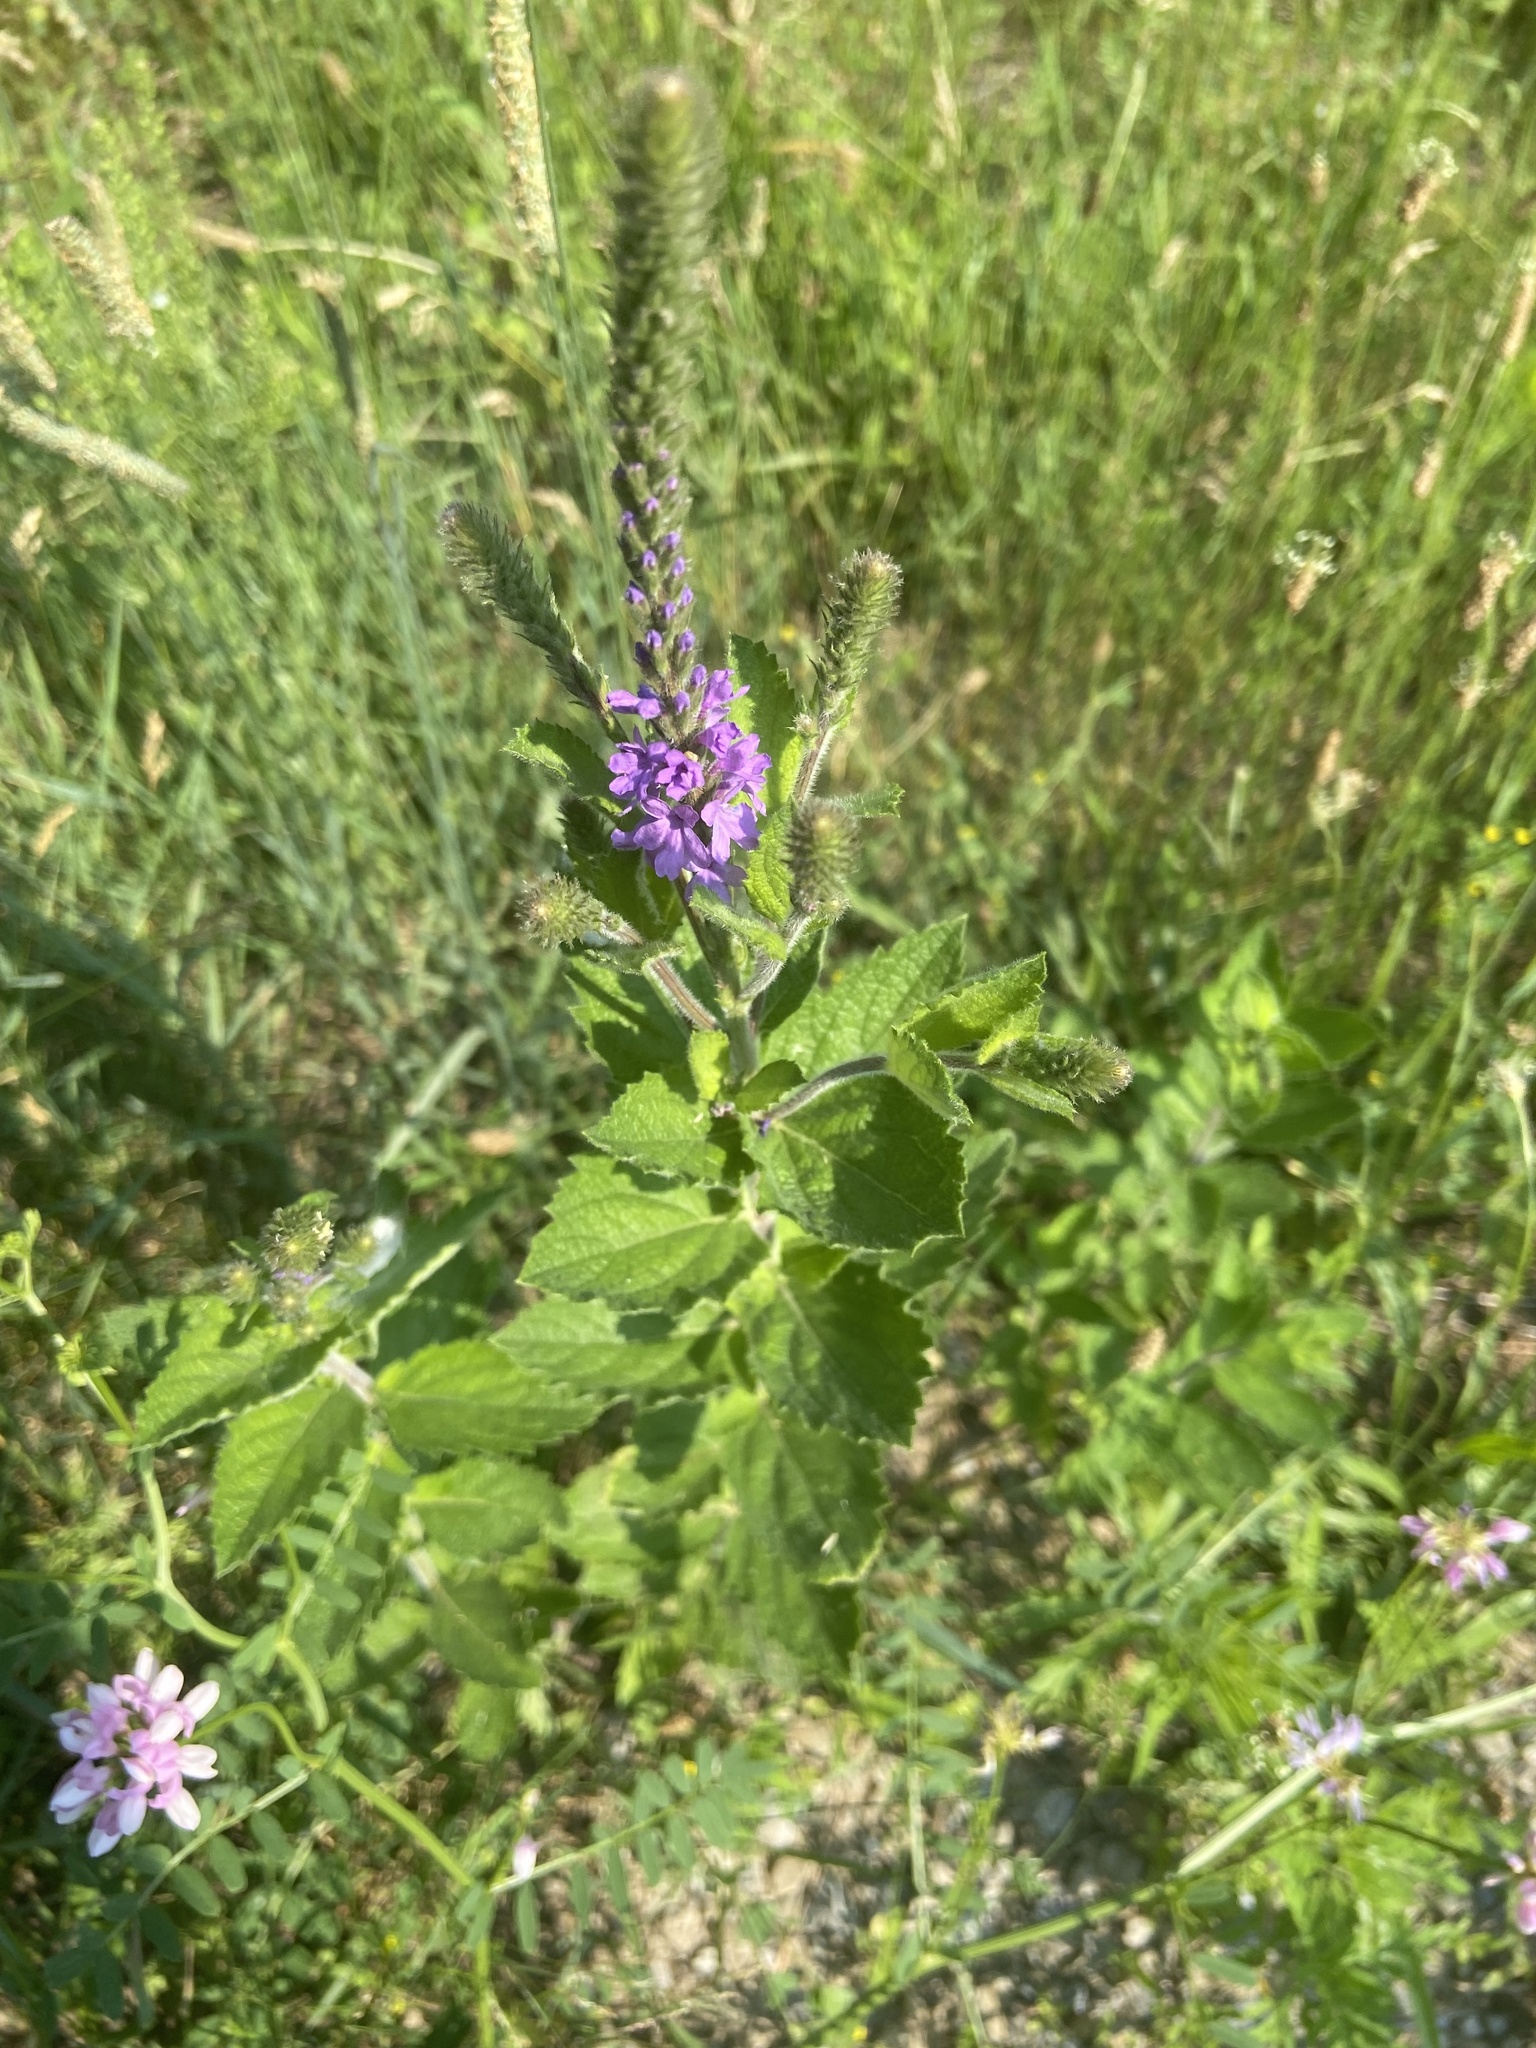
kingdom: Plantae
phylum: Tracheophyta
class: Magnoliopsida
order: Lamiales
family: Verbenaceae
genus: Verbena
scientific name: Verbena stricta
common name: Hoary vervain
